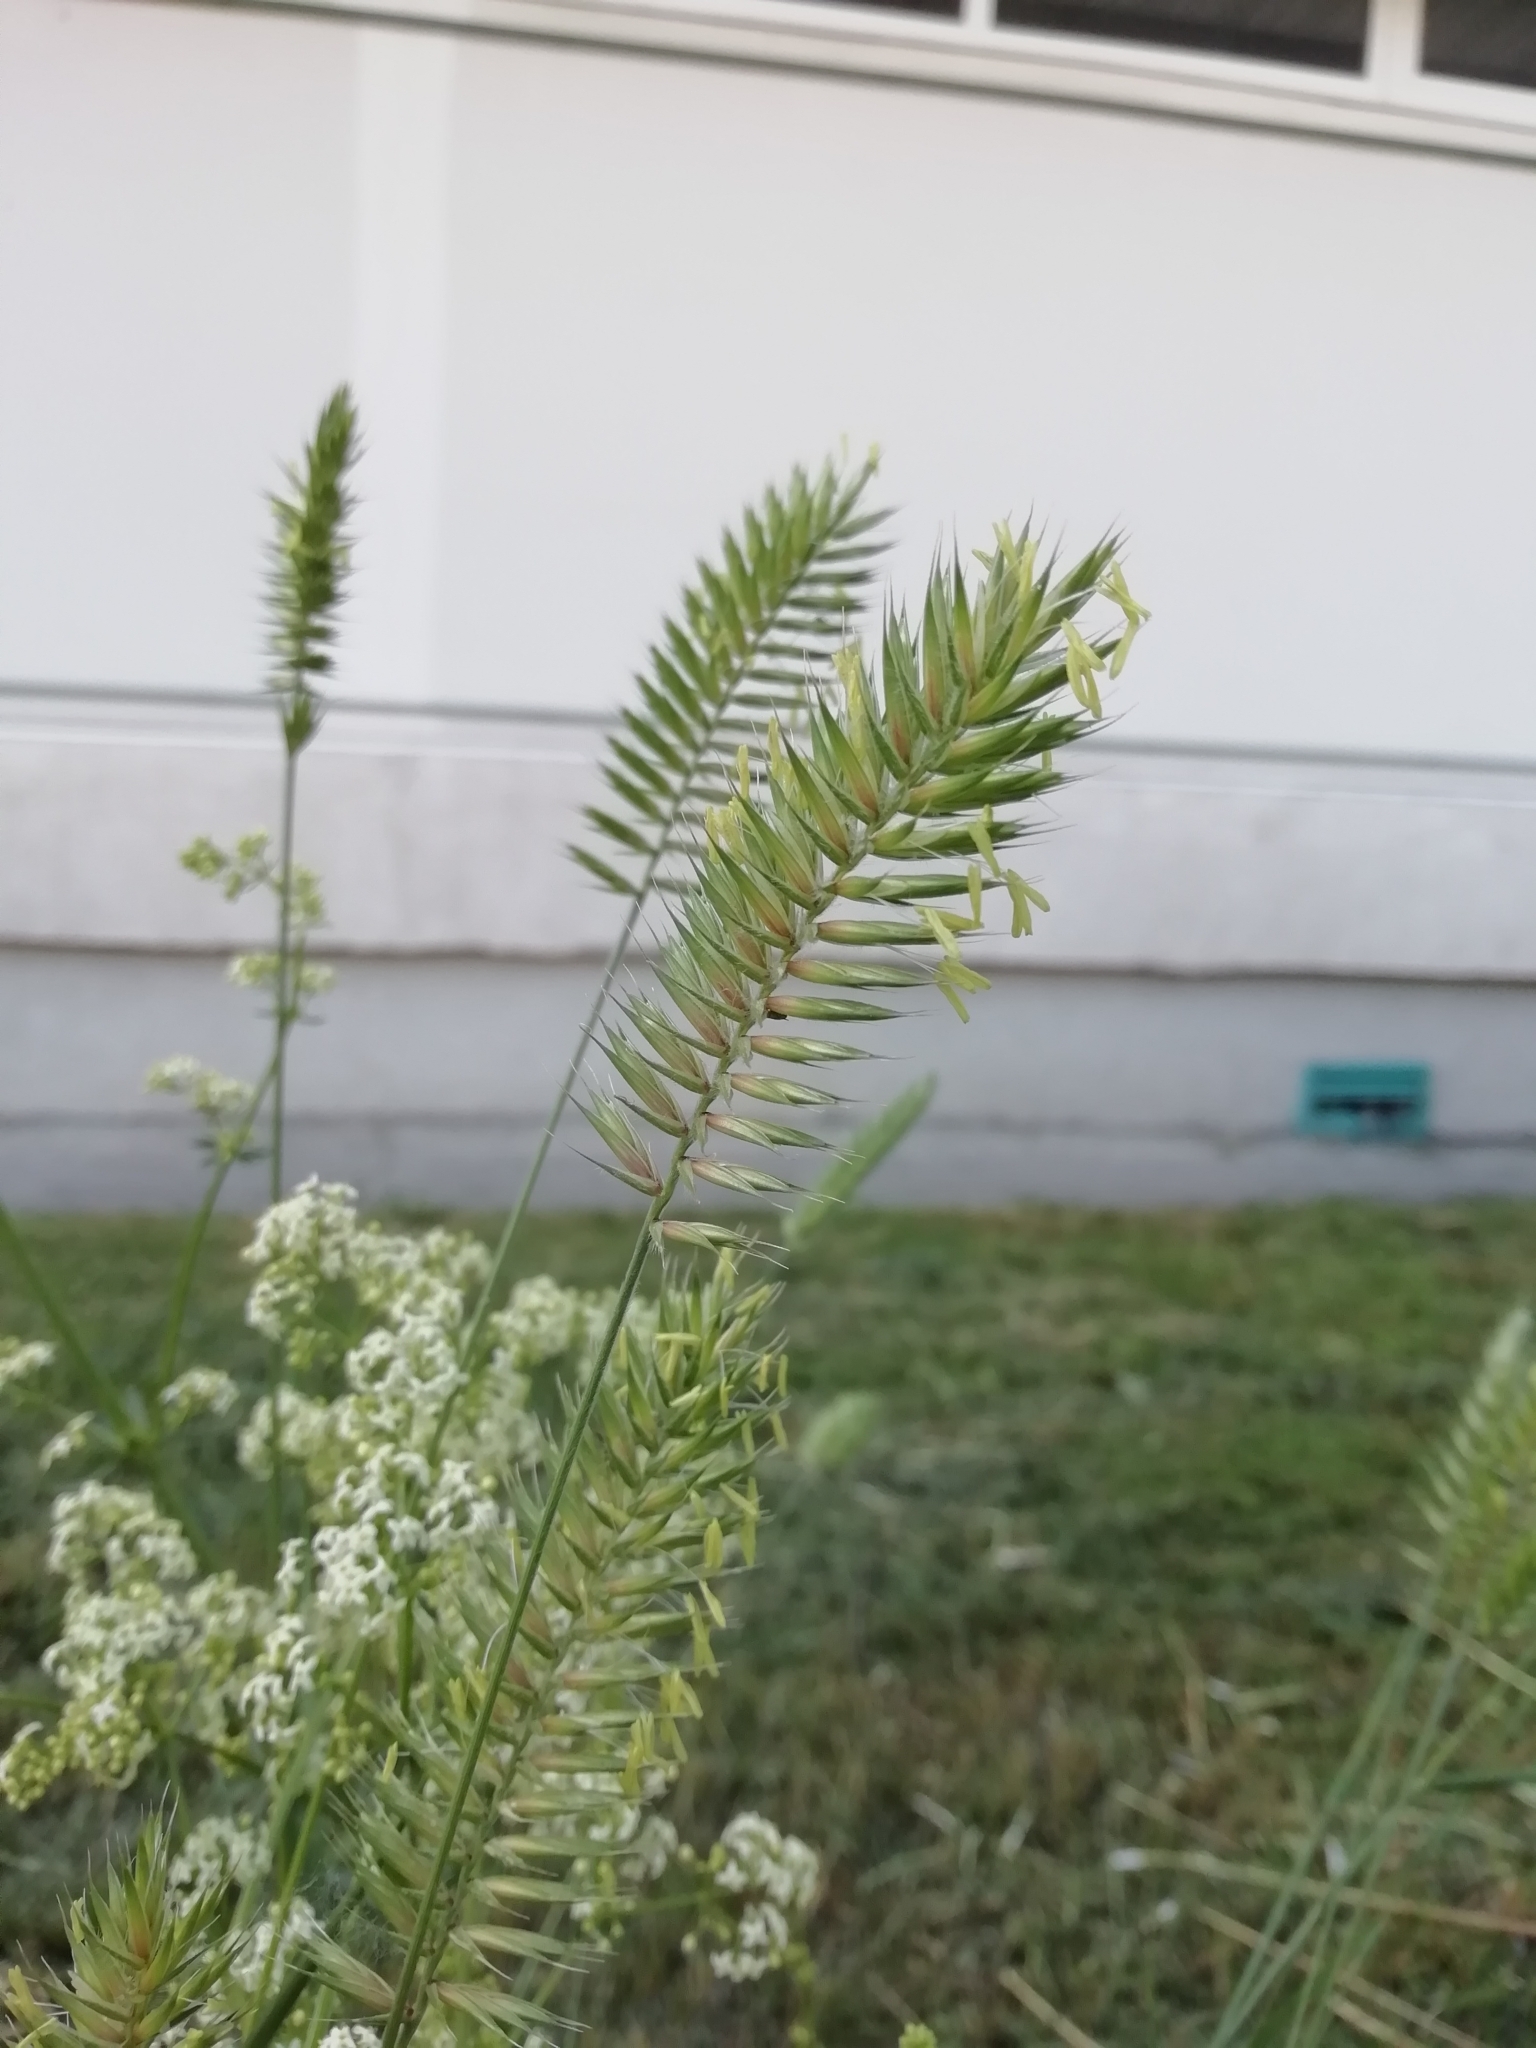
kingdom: Plantae
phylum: Tracheophyta
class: Liliopsida
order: Poales
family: Poaceae
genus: Agropyron
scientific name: Agropyron cristatum
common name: Crested wheatgrass
